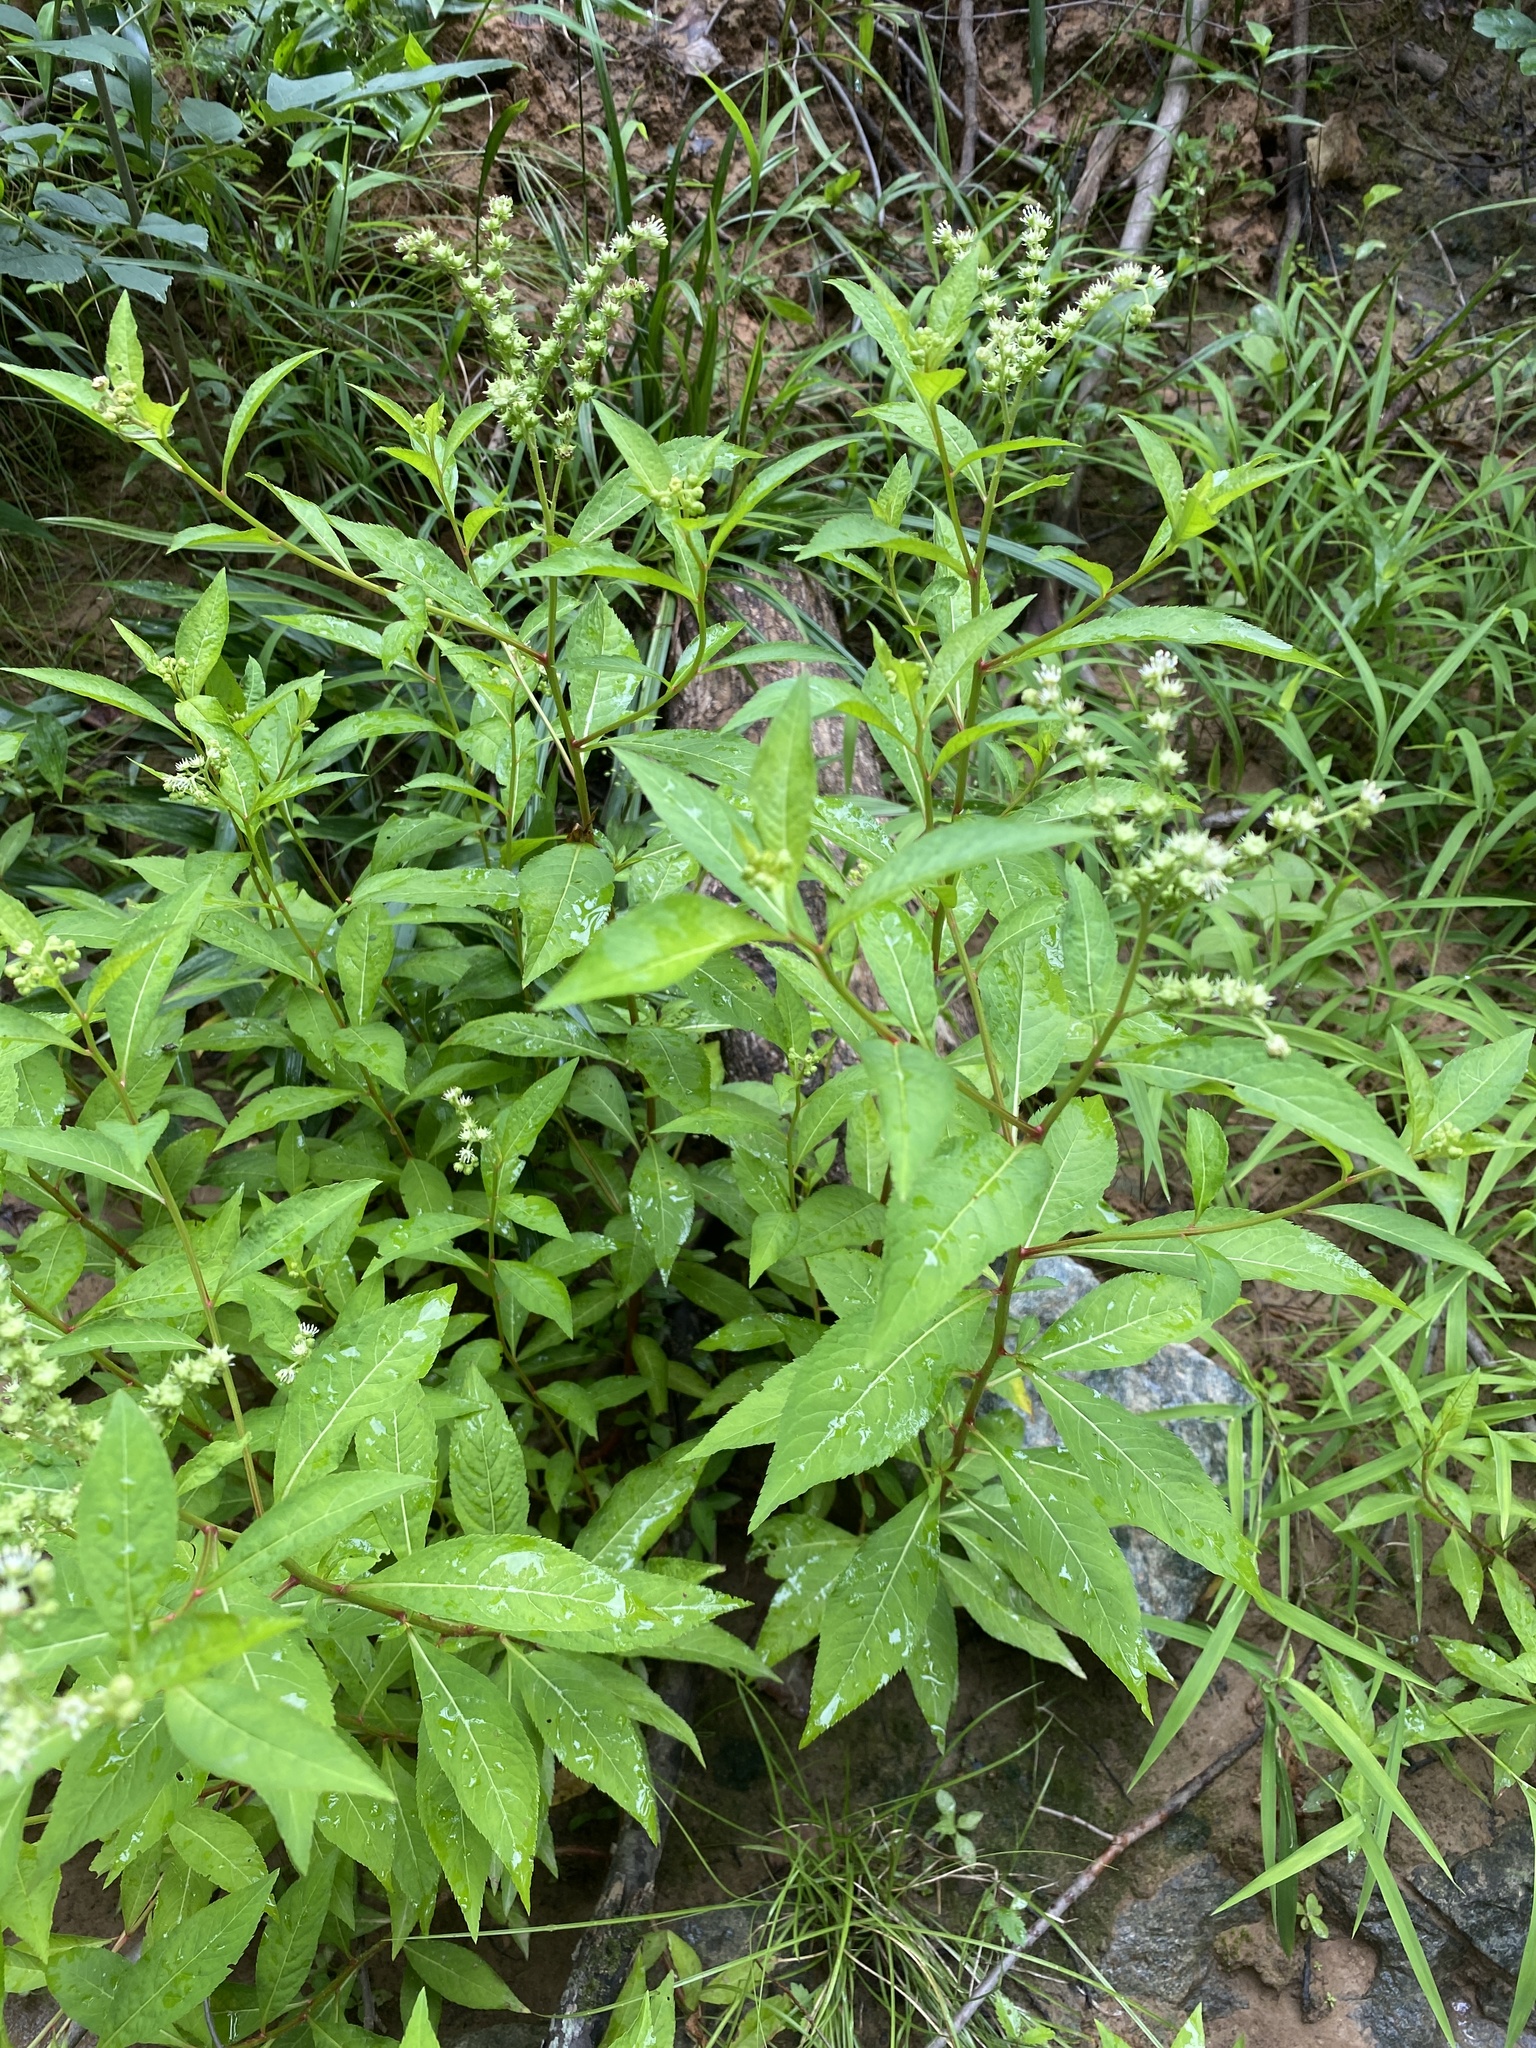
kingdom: Plantae
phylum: Tracheophyta
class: Magnoliopsida
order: Saxifragales
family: Penthoraceae
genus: Penthorum
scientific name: Penthorum sedoides
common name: Ditch stonecrop
